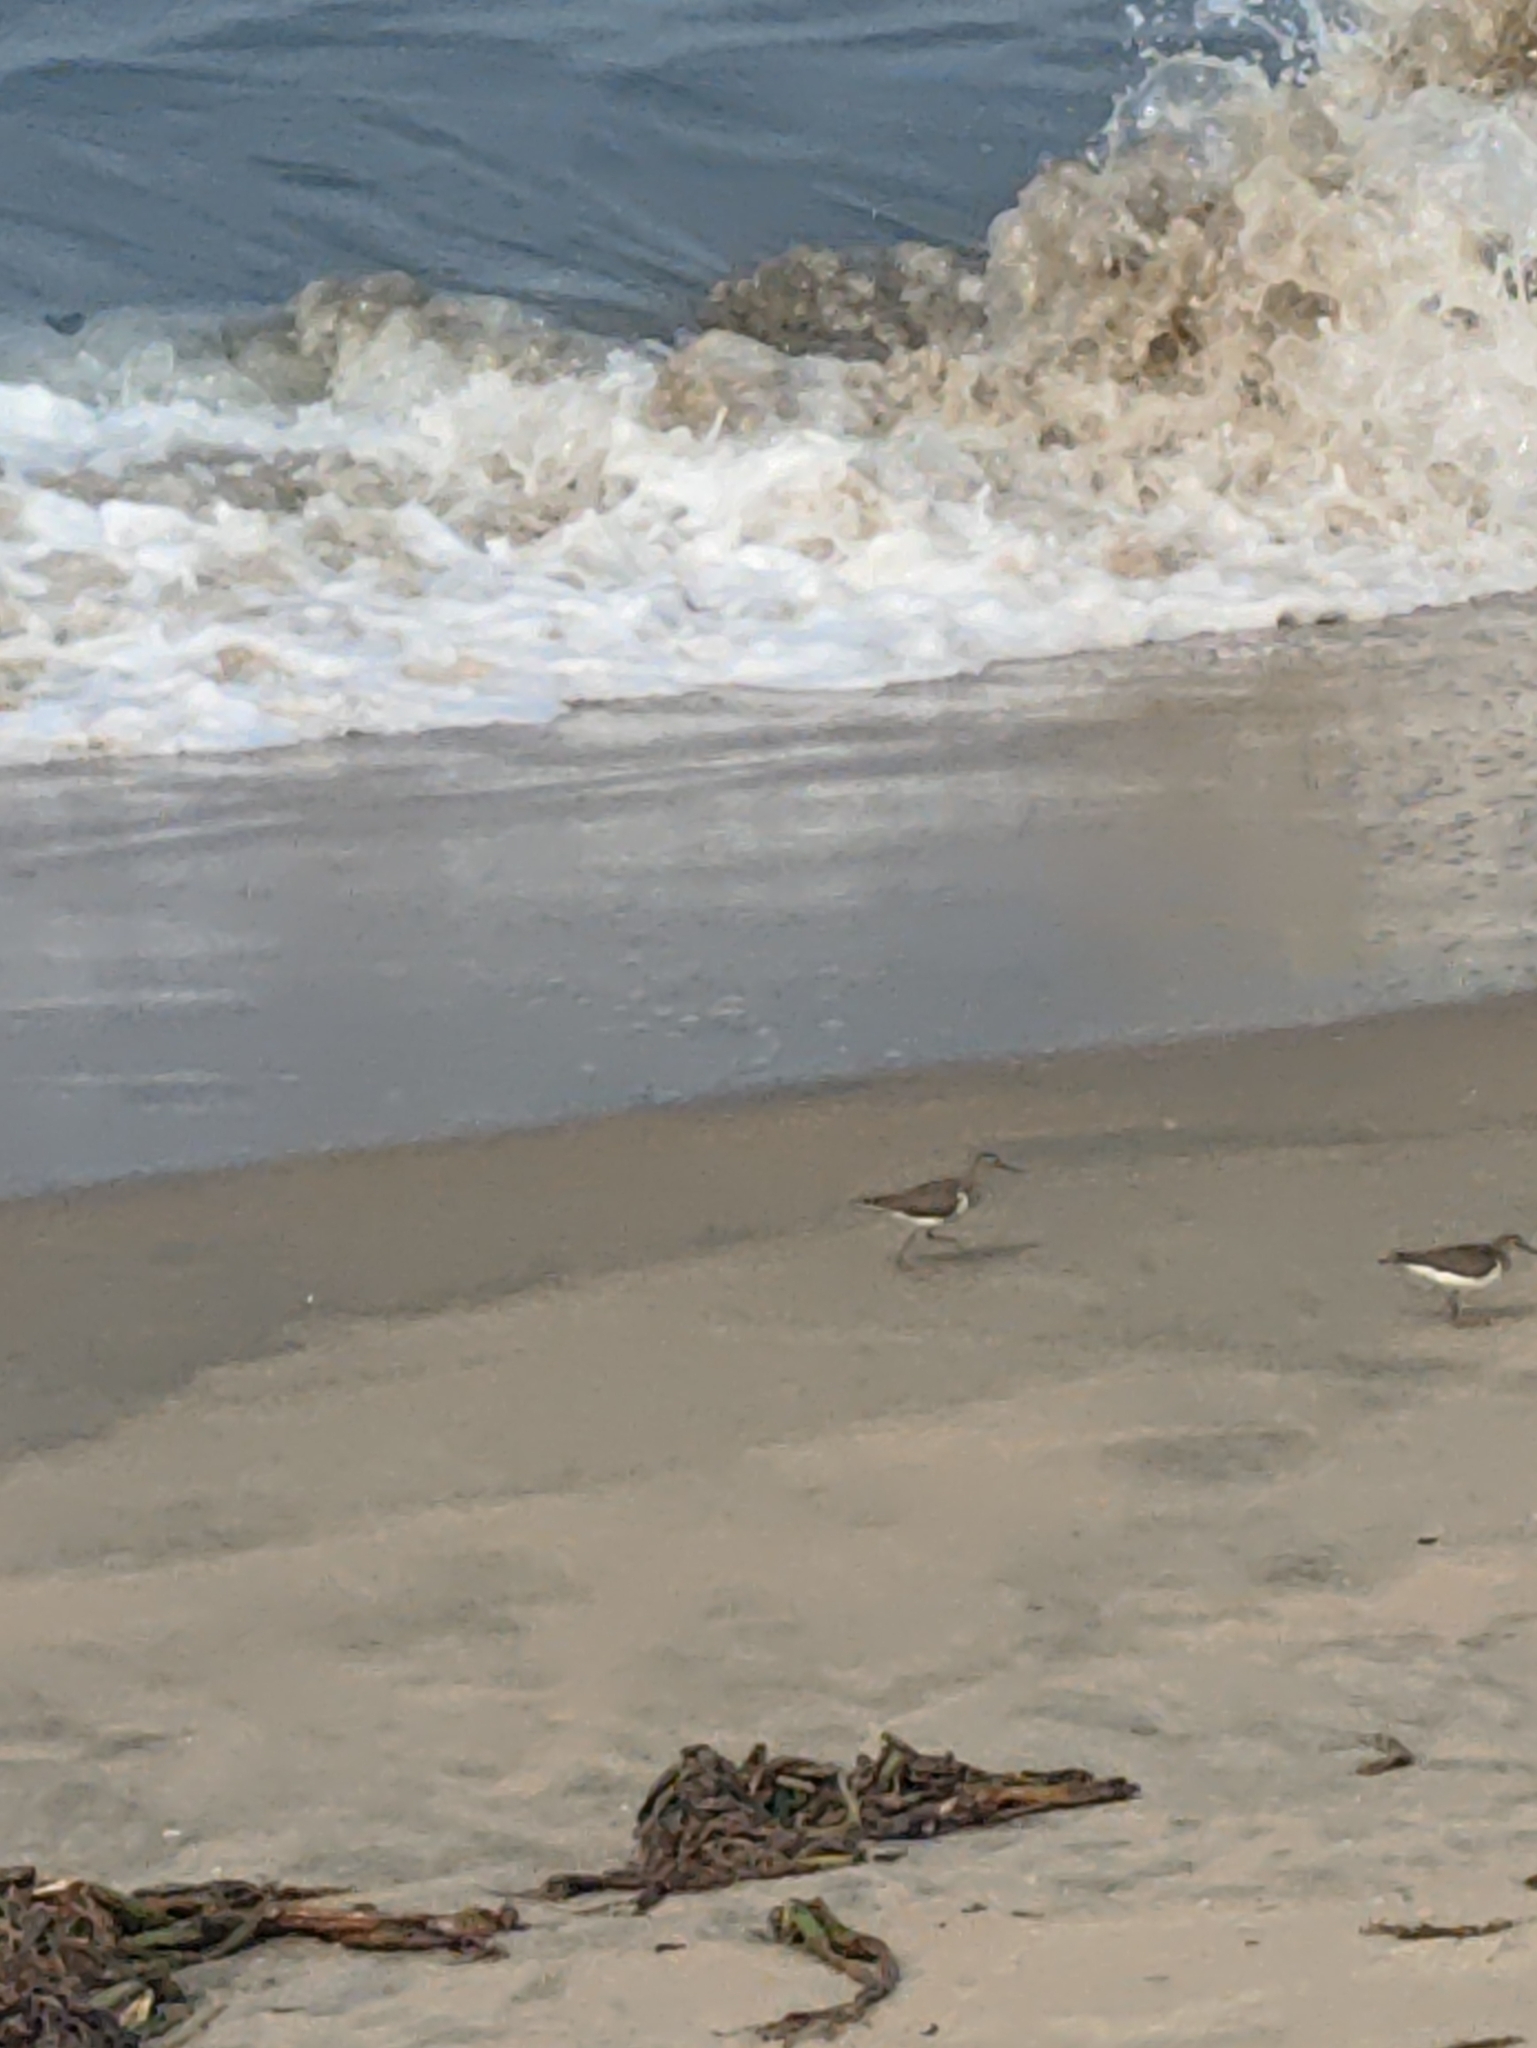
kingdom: Animalia
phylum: Chordata
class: Aves
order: Charadriiformes
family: Scolopacidae
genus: Actitis
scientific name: Actitis hypoleucos
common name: Common sandpiper
